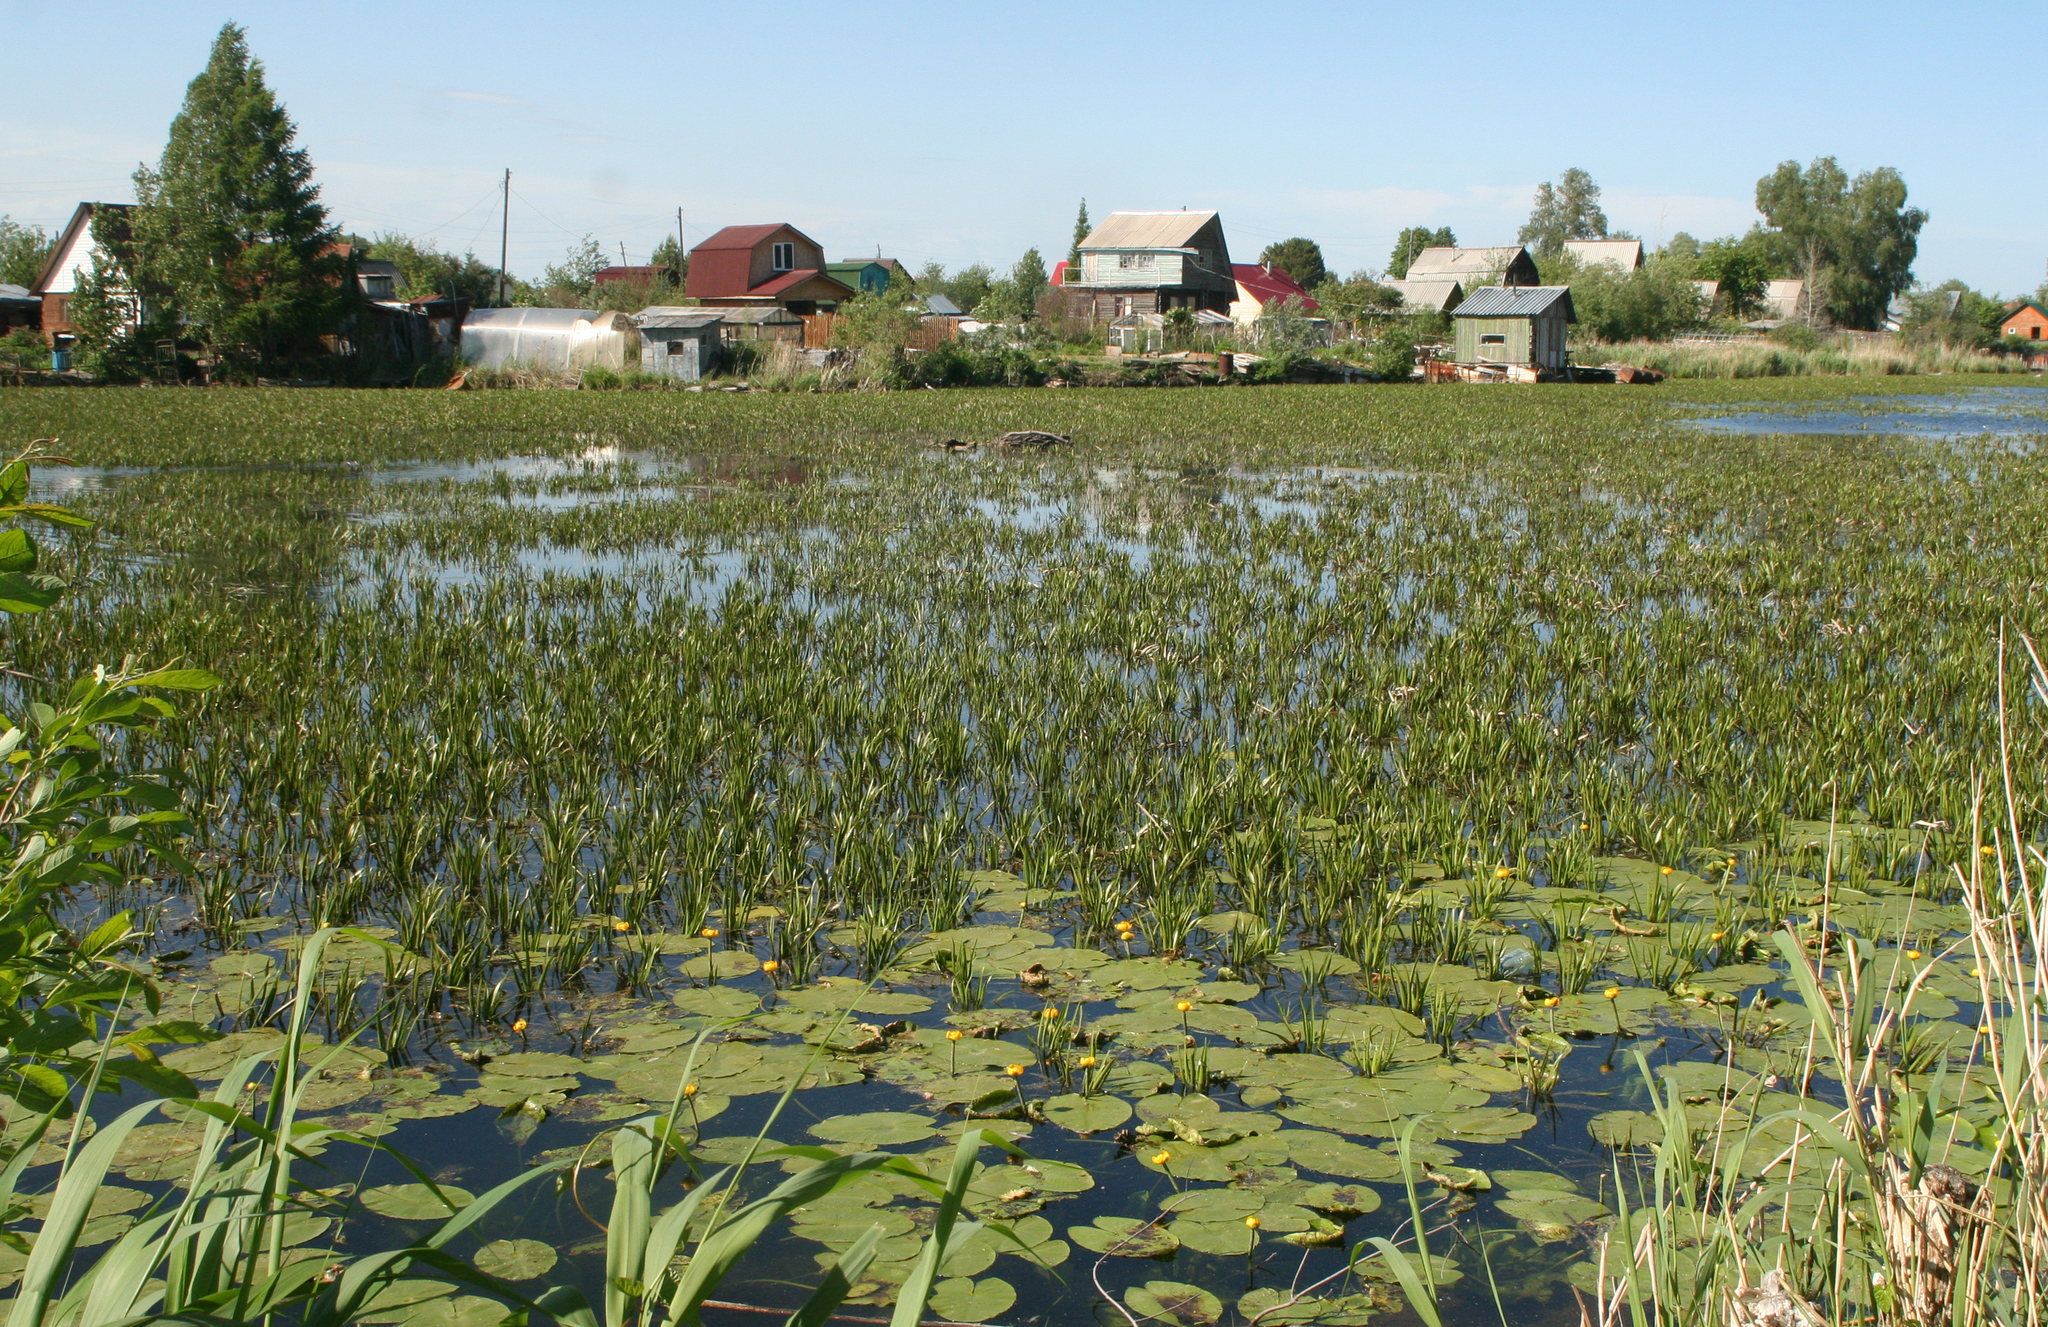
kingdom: Plantae
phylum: Tracheophyta
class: Liliopsida
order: Alismatales
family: Hydrocharitaceae
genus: Stratiotes
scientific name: Stratiotes aloides
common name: Water-soldier
